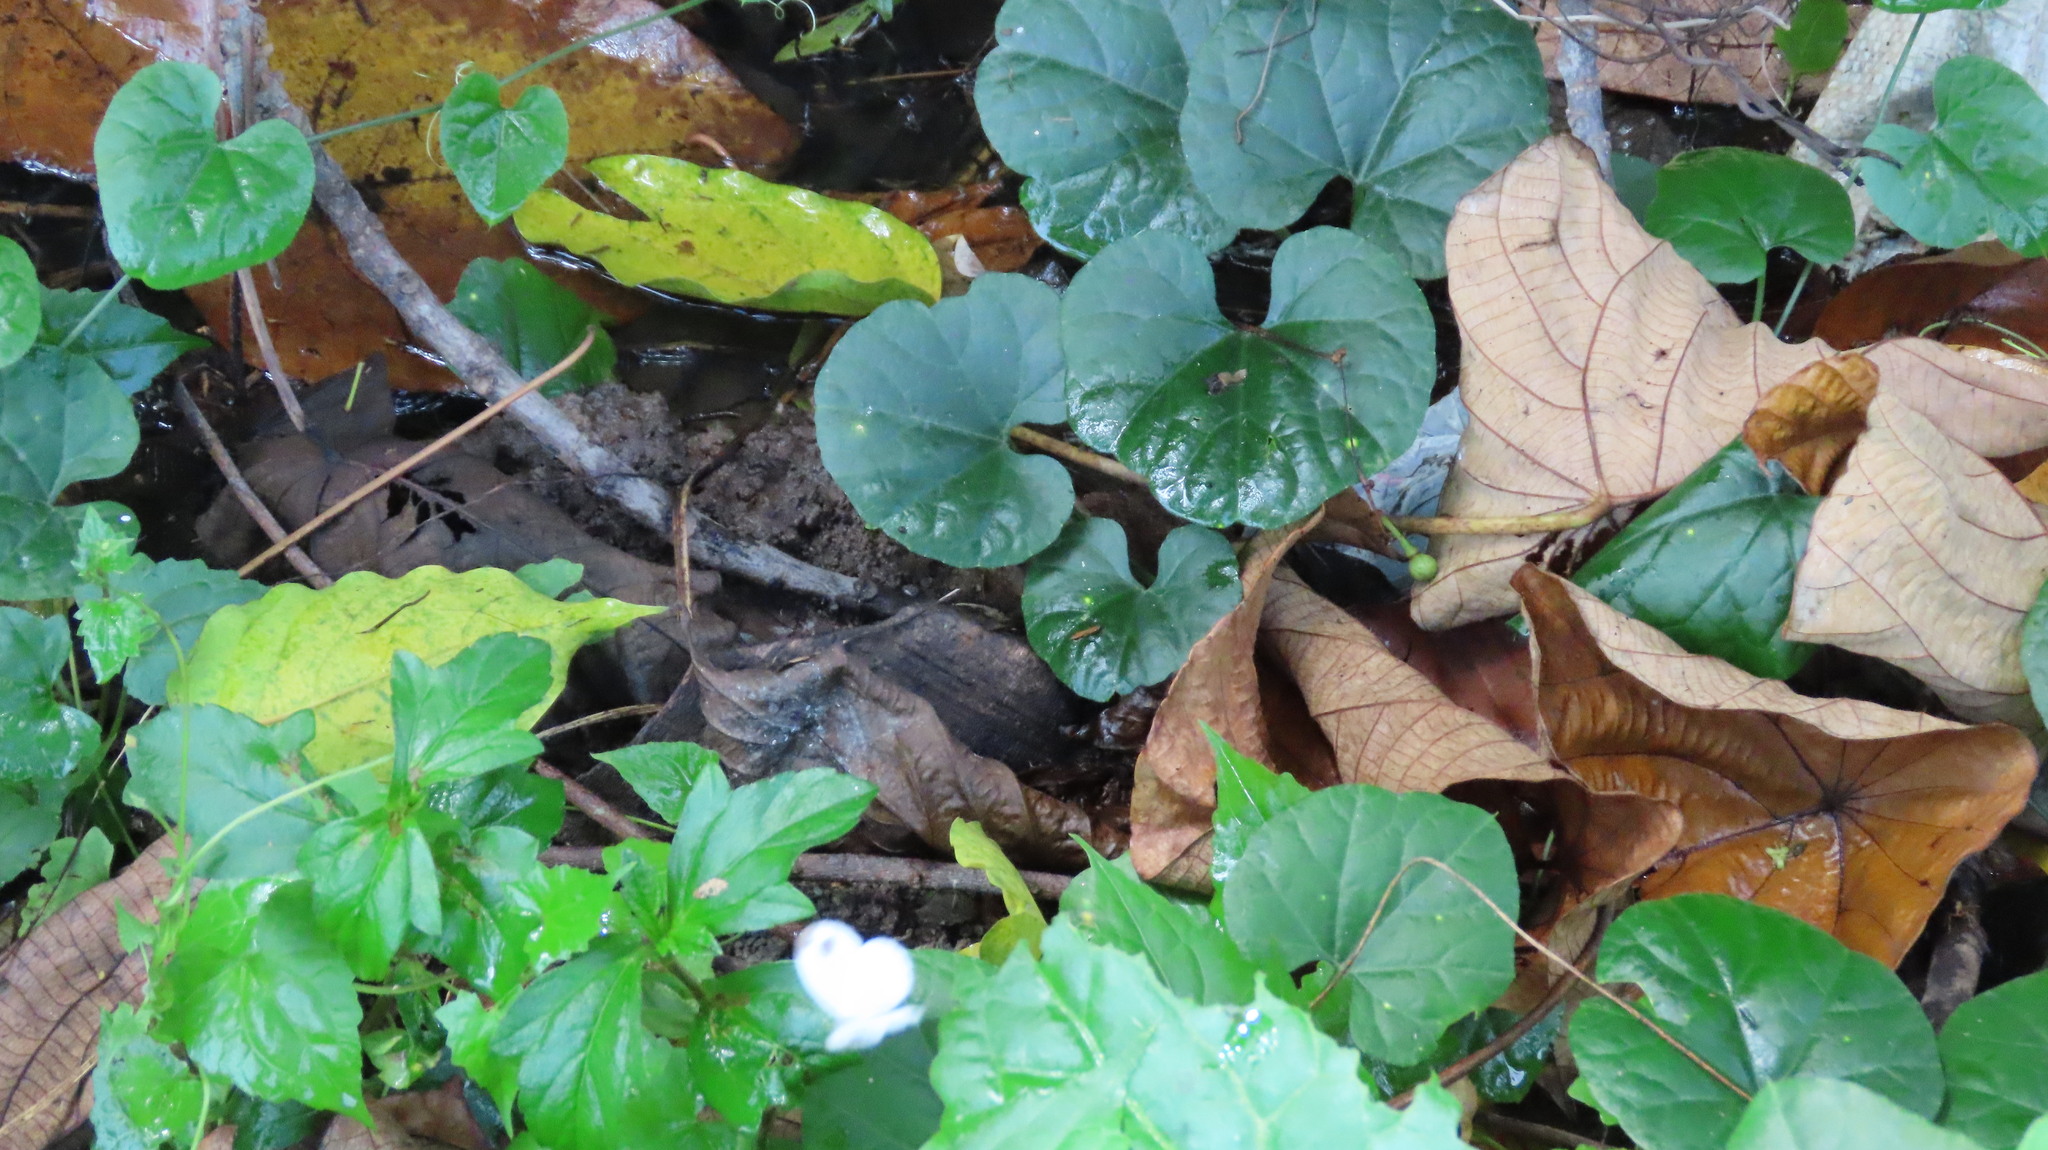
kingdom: Animalia
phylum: Arthropoda
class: Insecta
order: Lepidoptera
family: Pieridae
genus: Leptosia
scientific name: Leptosia nina
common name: Psyche
